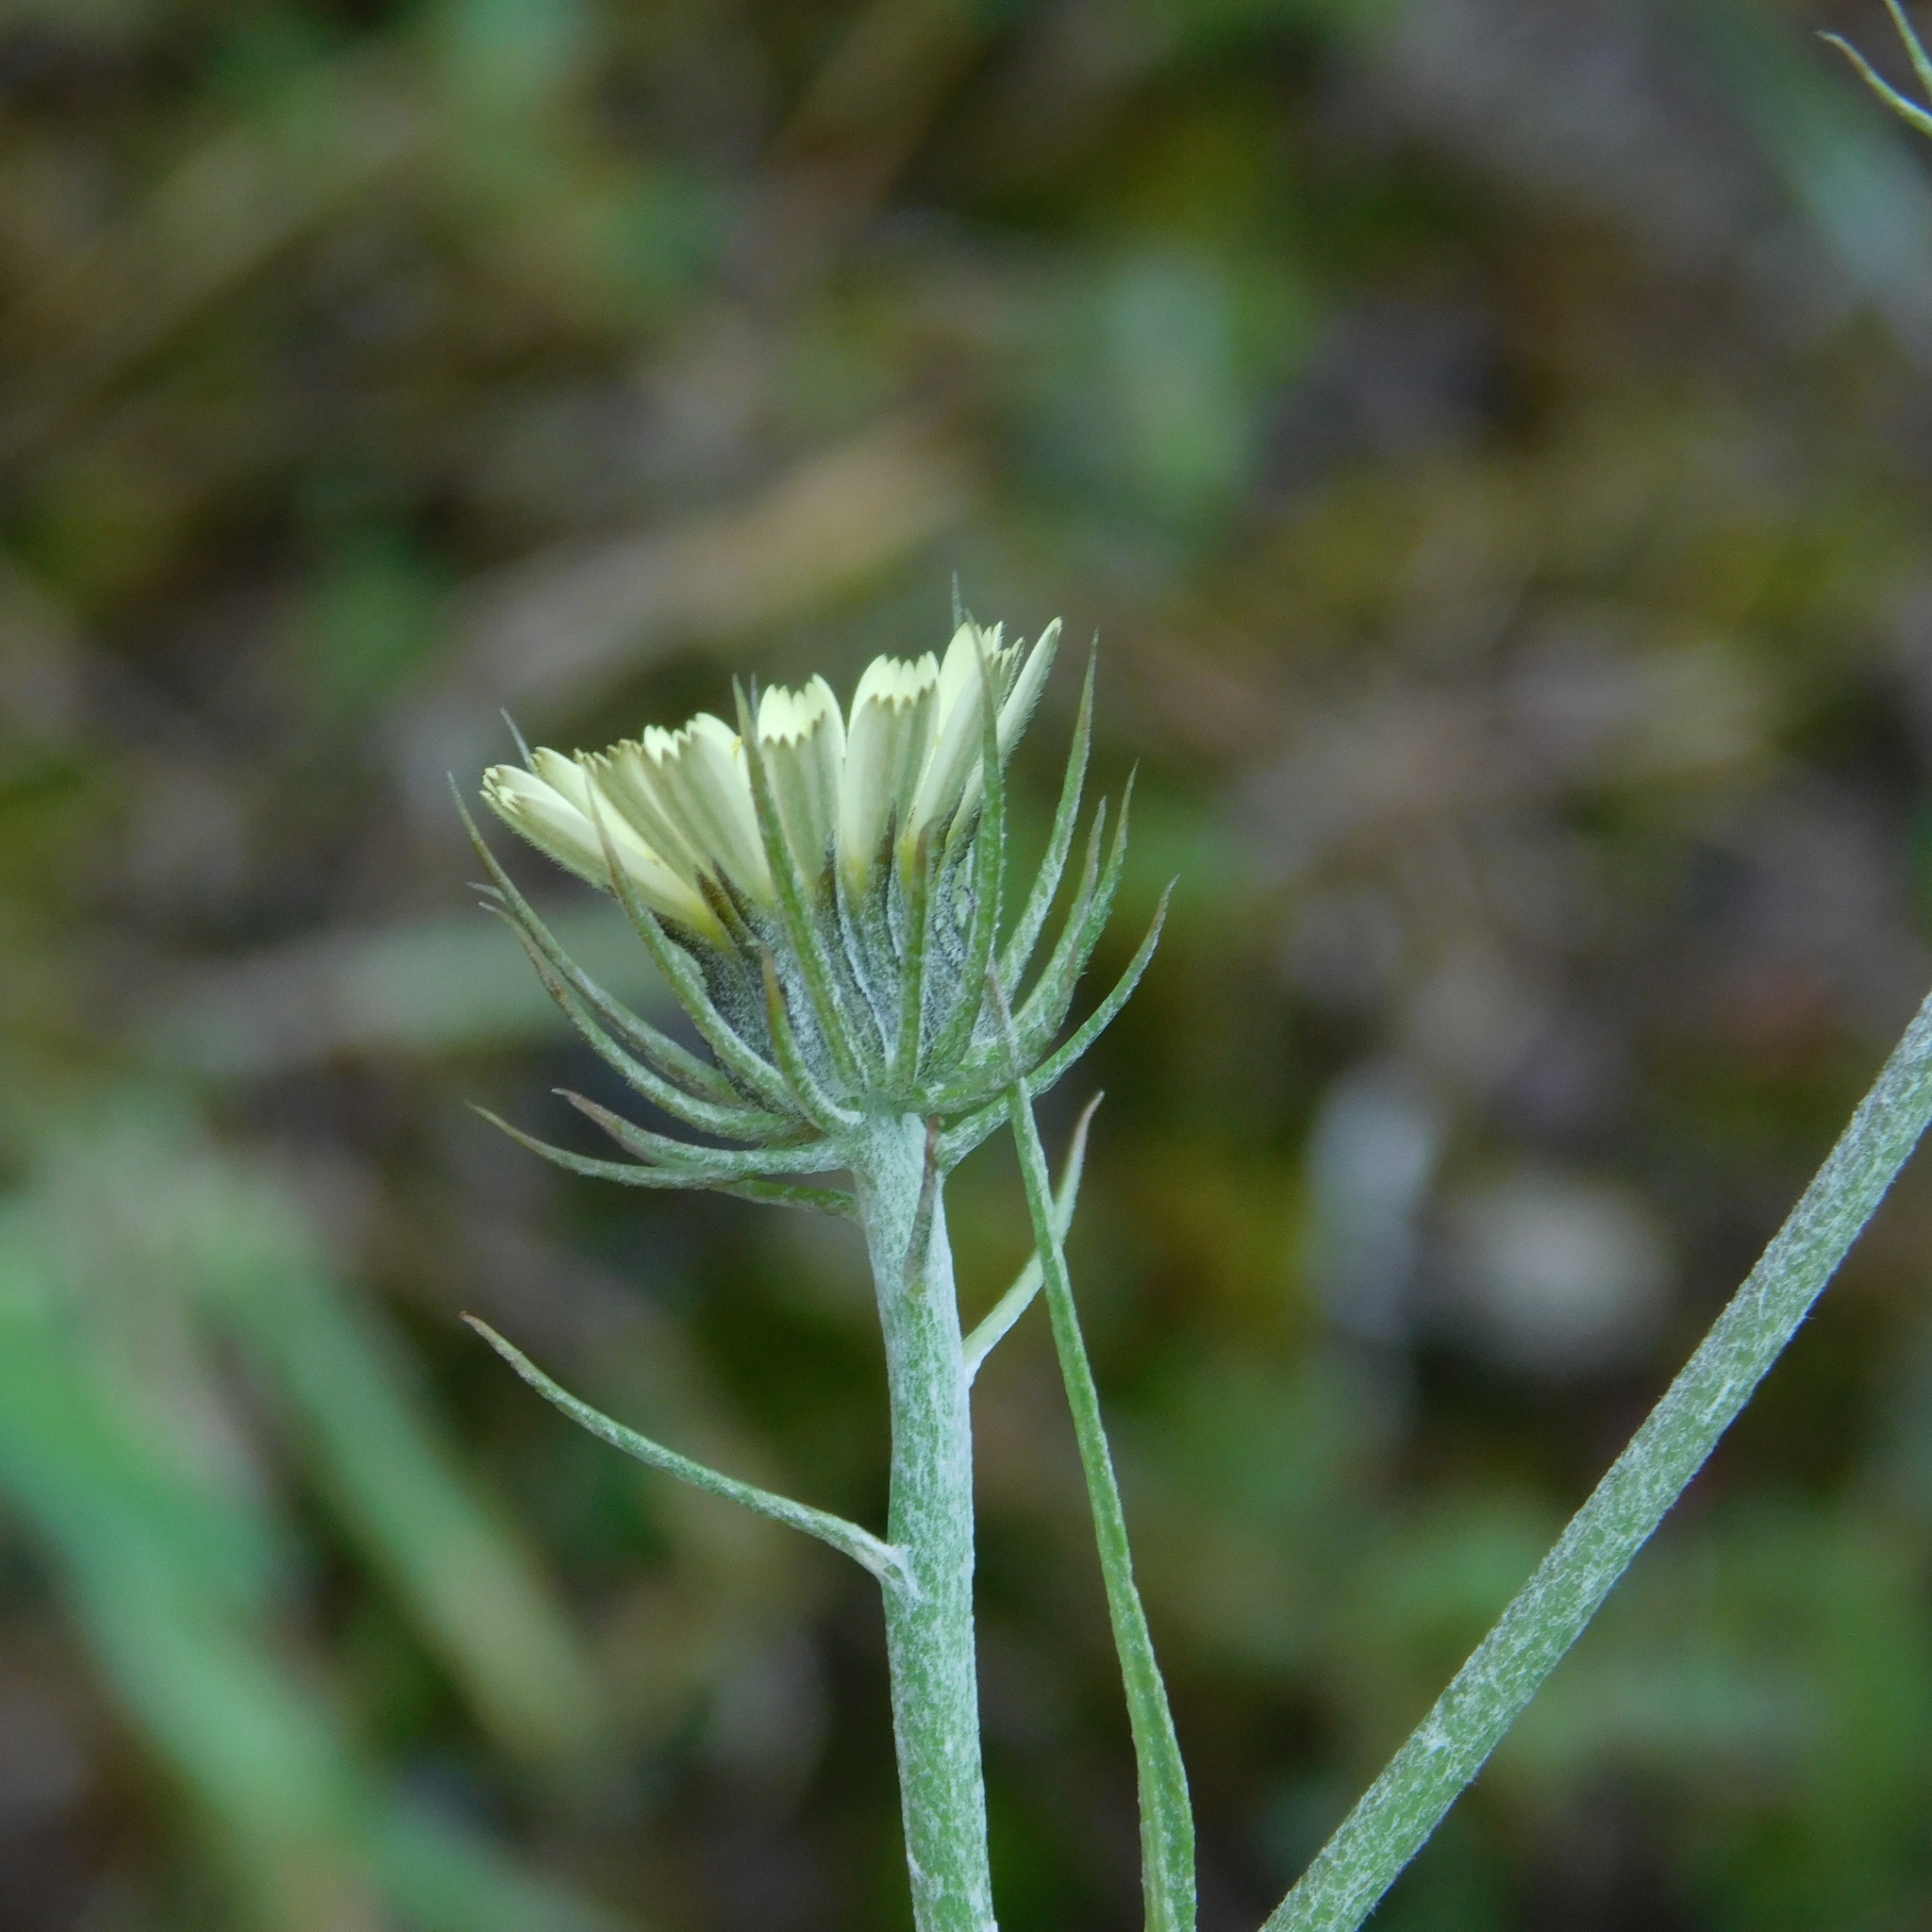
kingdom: Plantae
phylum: Tracheophyta
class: Magnoliopsida
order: Asterales
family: Asteraceae
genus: Tolpis
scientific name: Tolpis barbata
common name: Yellow hawkweed
